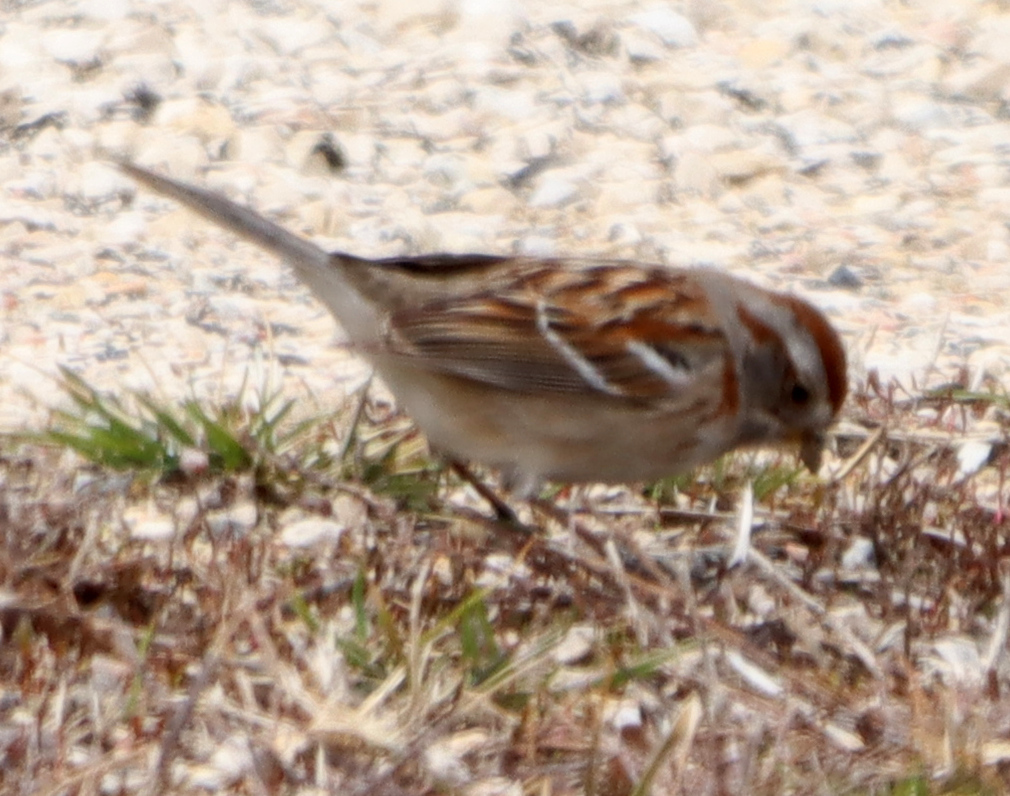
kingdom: Animalia
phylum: Chordata
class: Aves
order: Passeriformes
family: Passerellidae
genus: Spizelloides
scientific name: Spizelloides arborea
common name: American tree sparrow
